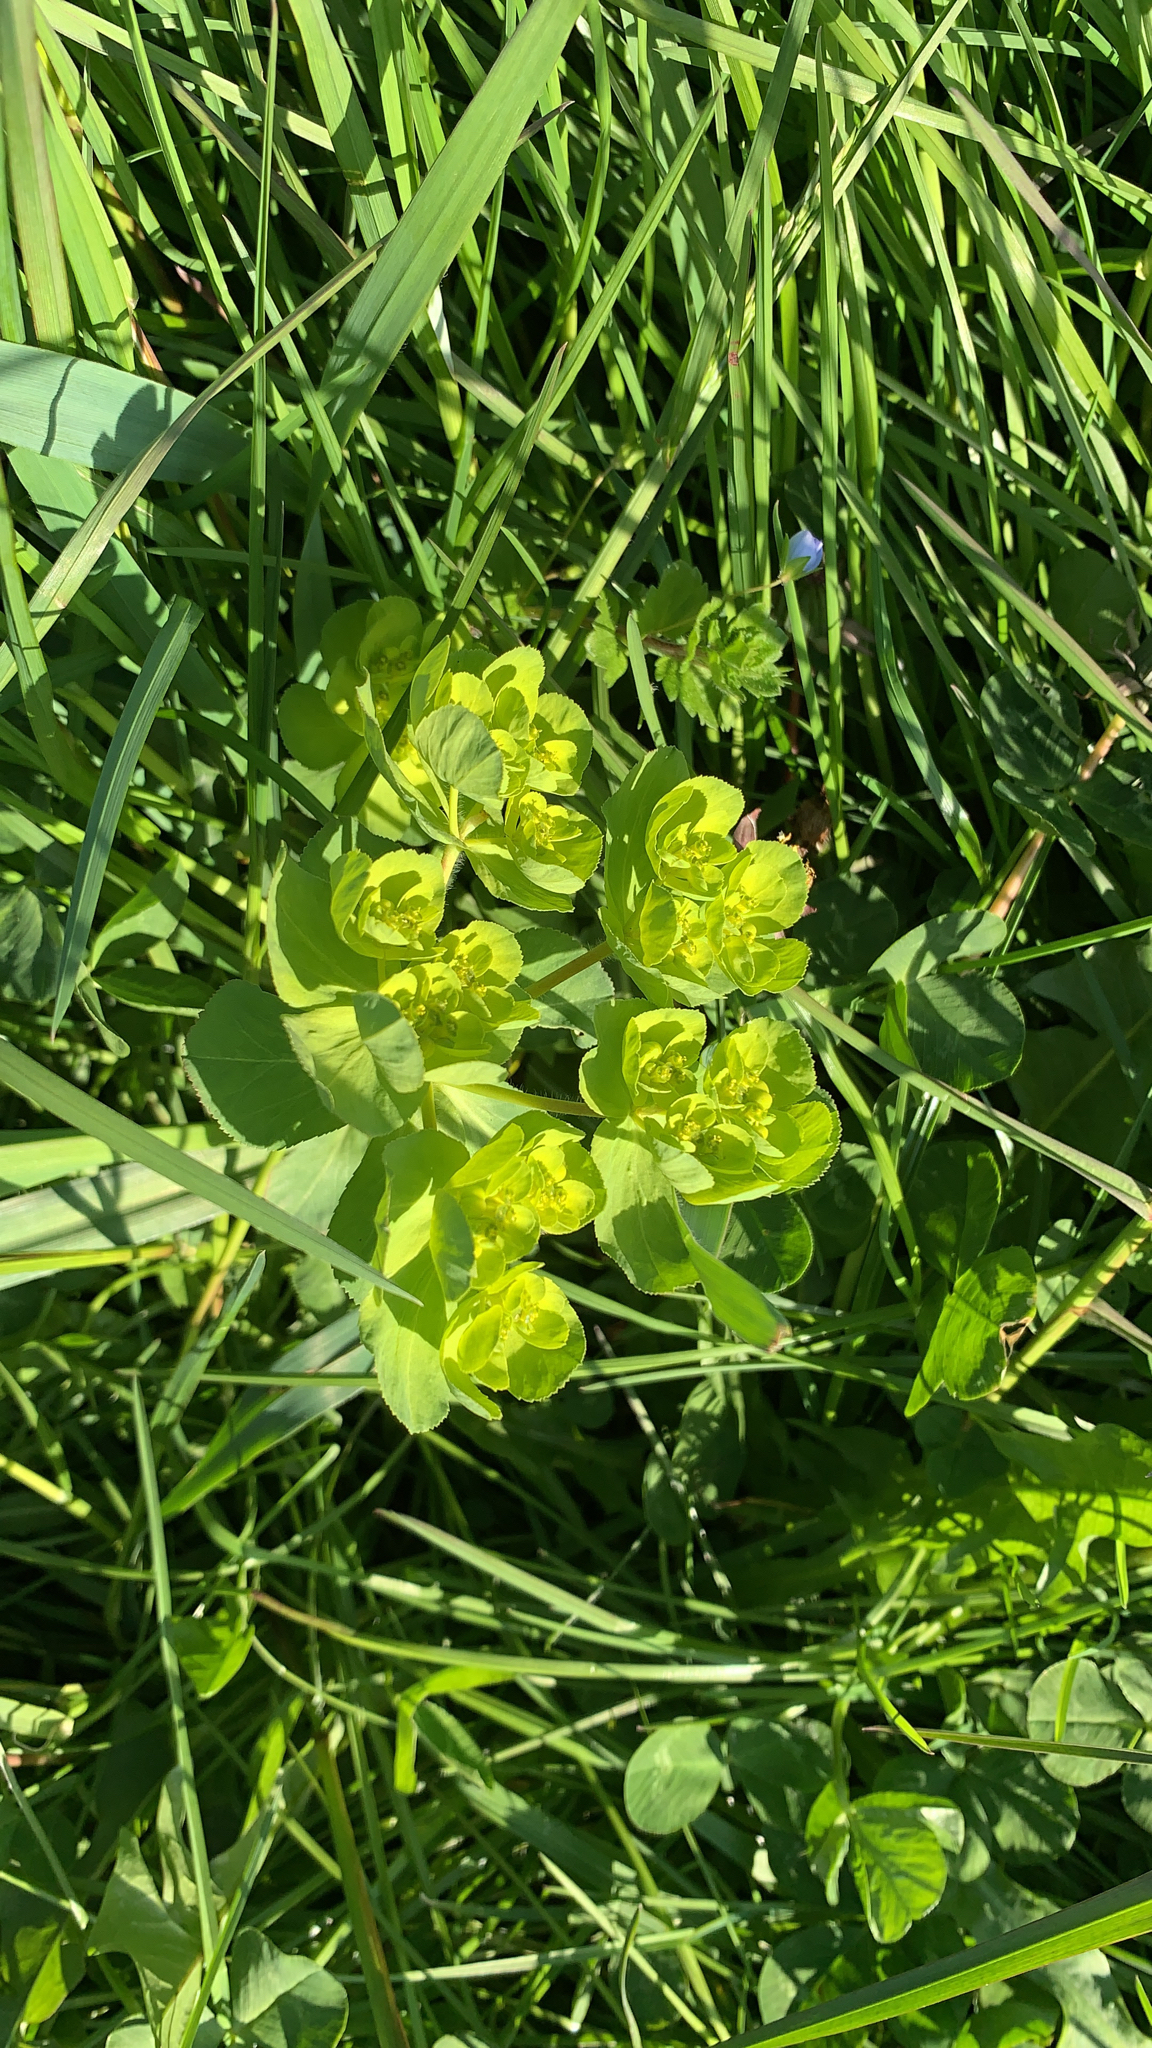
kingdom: Plantae
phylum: Tracheophyta
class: Magnoliopsida
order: Malpighiales
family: Euphorbiaceae
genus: Euphorbia
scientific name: Euphorbia helioscopia
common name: Sun spurge
